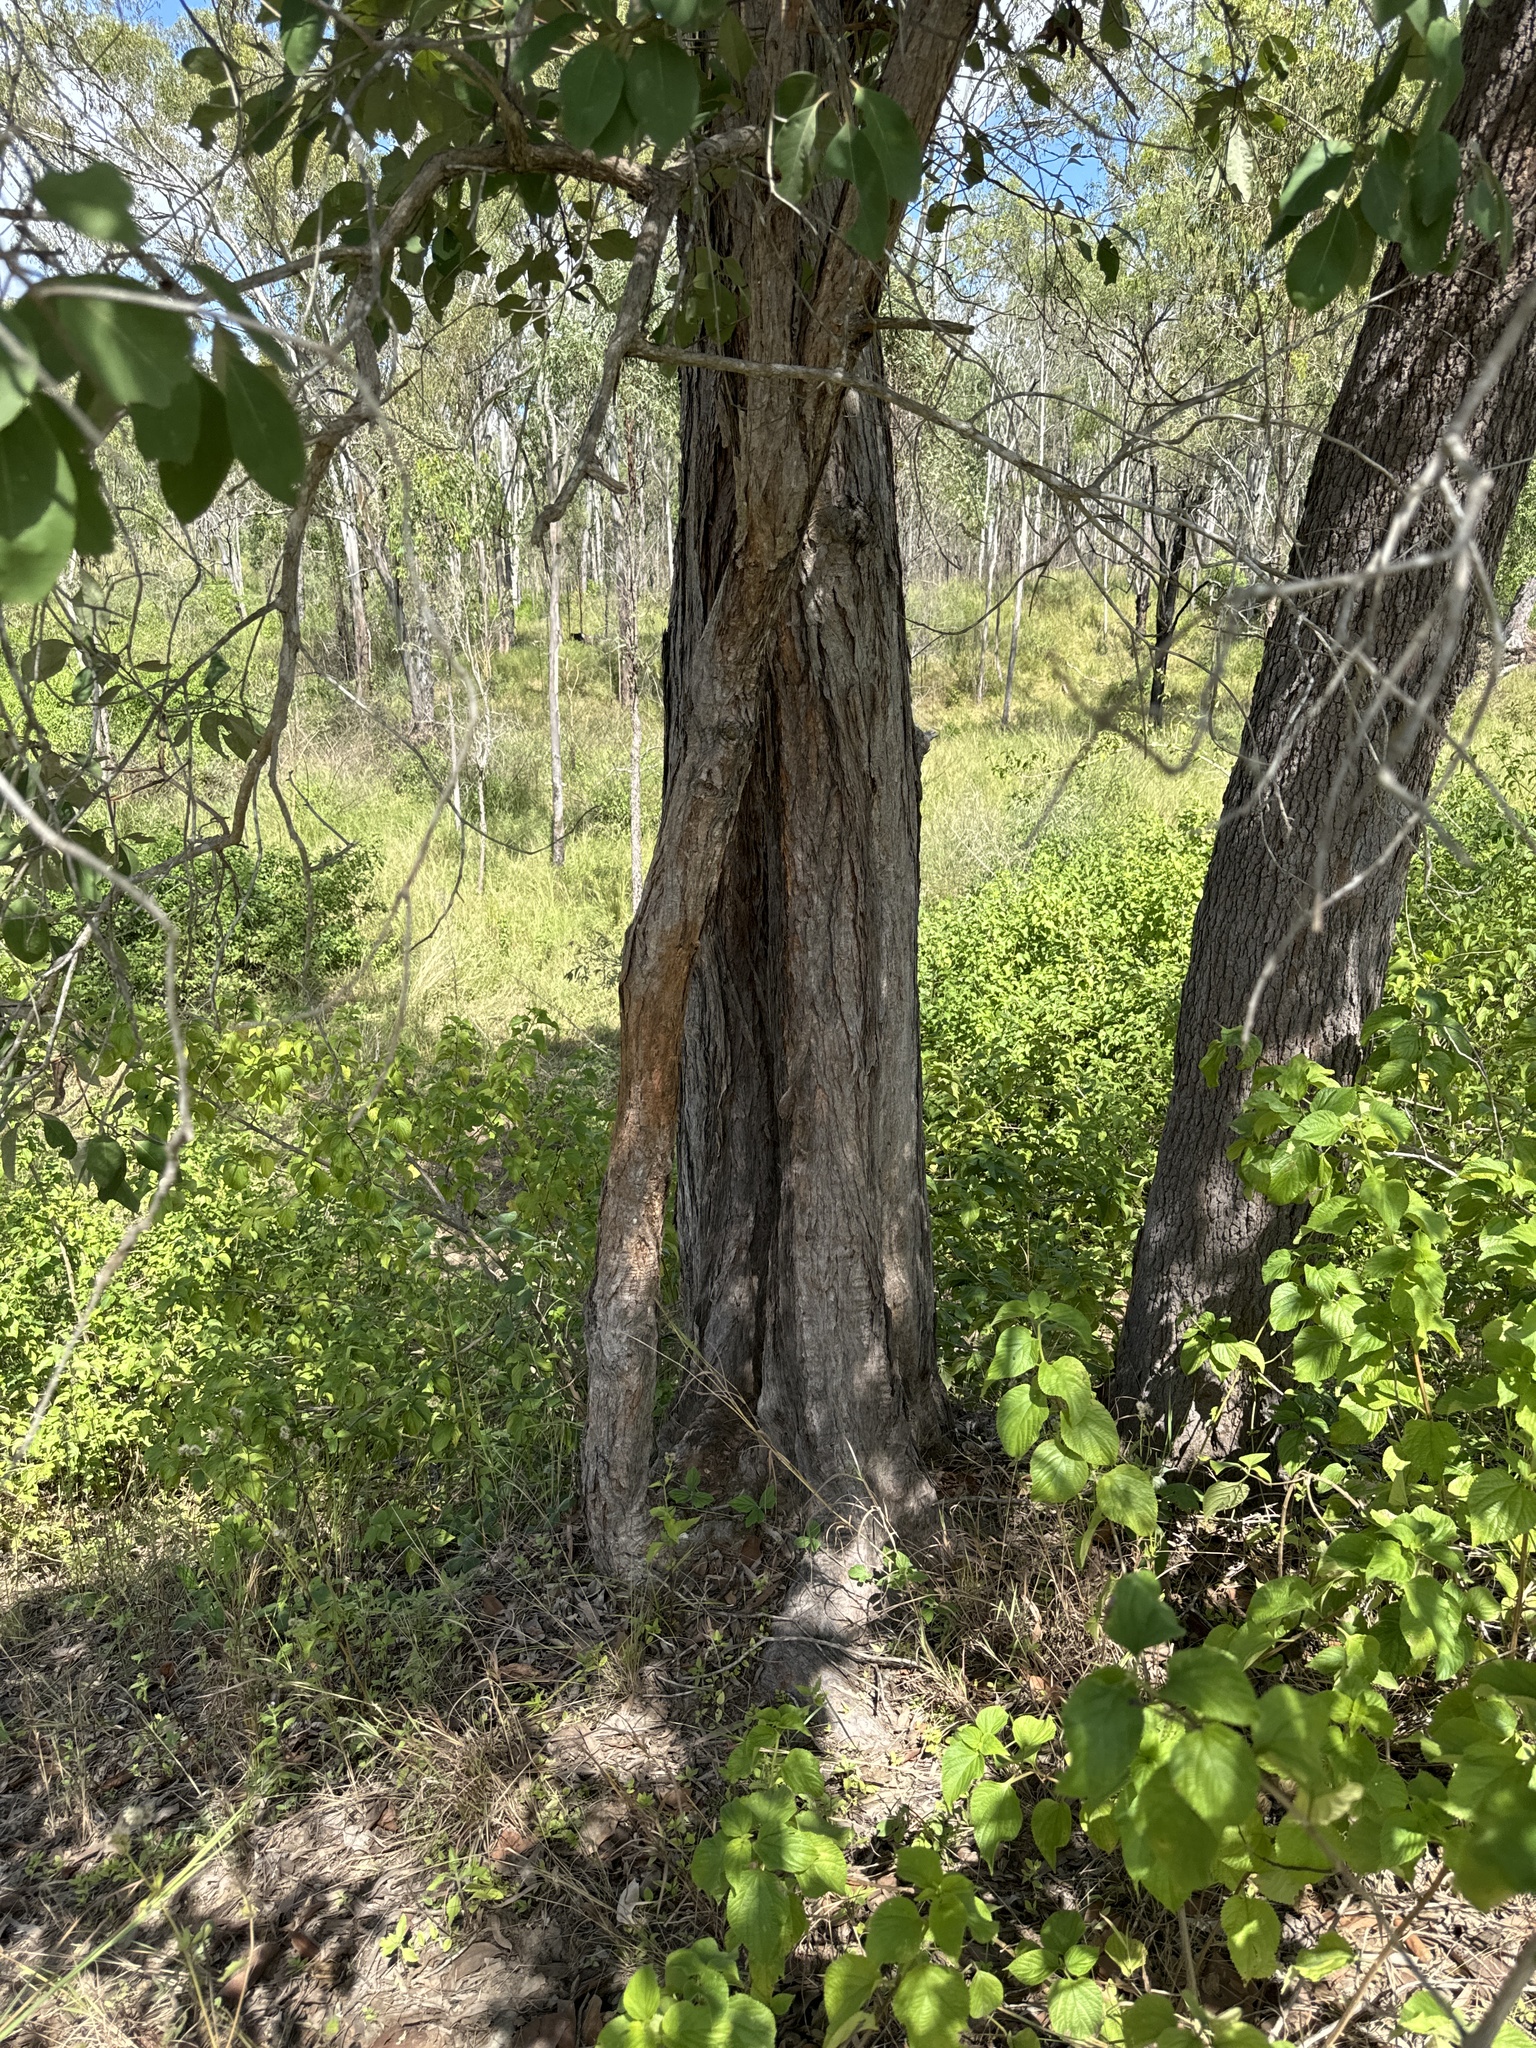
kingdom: Plantae
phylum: Tracheophyta
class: Magnoliopsida
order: Myrtales
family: Myrtaceae
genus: Lophostemon
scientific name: Lophostemon suaveolens
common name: Paperbark-mahogany
